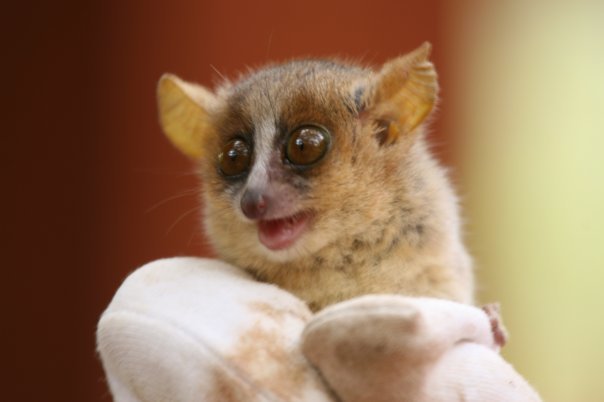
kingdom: Animalia
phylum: Chordata
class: Mammalia
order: Primates
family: Cheirogaleidae
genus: Microcebus
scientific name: Microcebus ravelobensis
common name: Golden-brown mouse lemur
